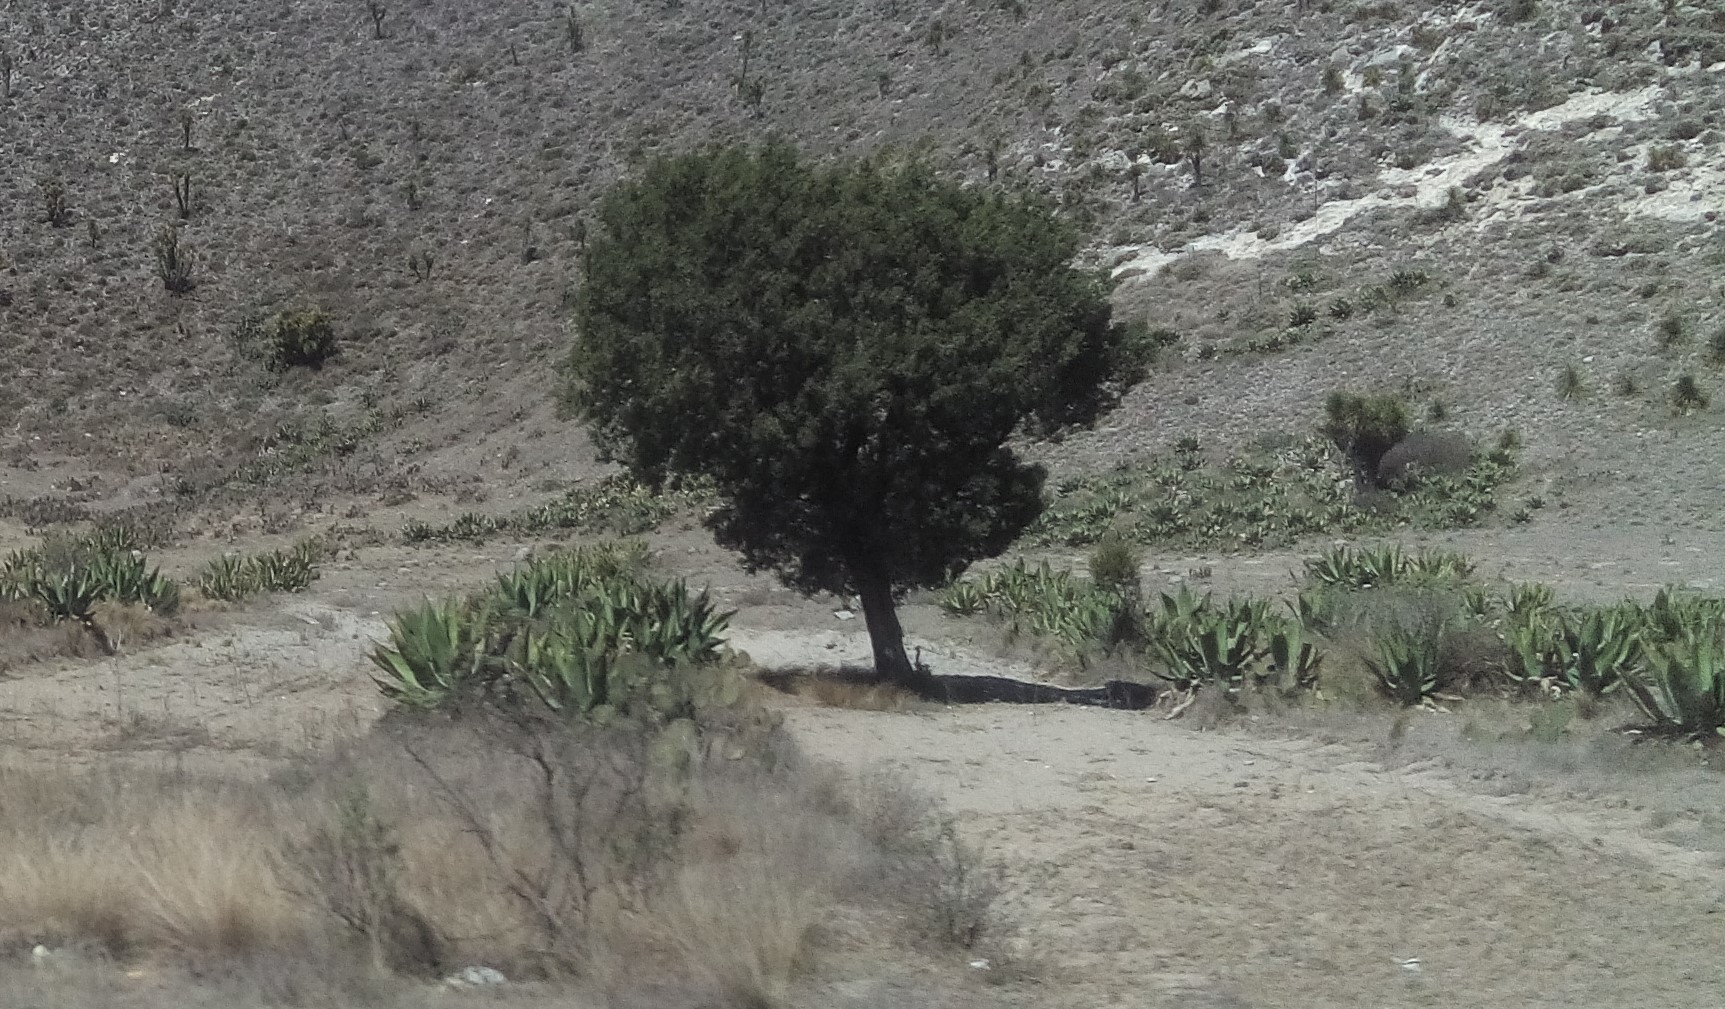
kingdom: Plantae
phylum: Tracheophyta
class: Pinopsida
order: Pinales
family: Cupressaceae
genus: Juniperus
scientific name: Juniperus deppeana
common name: Alligator juniper
